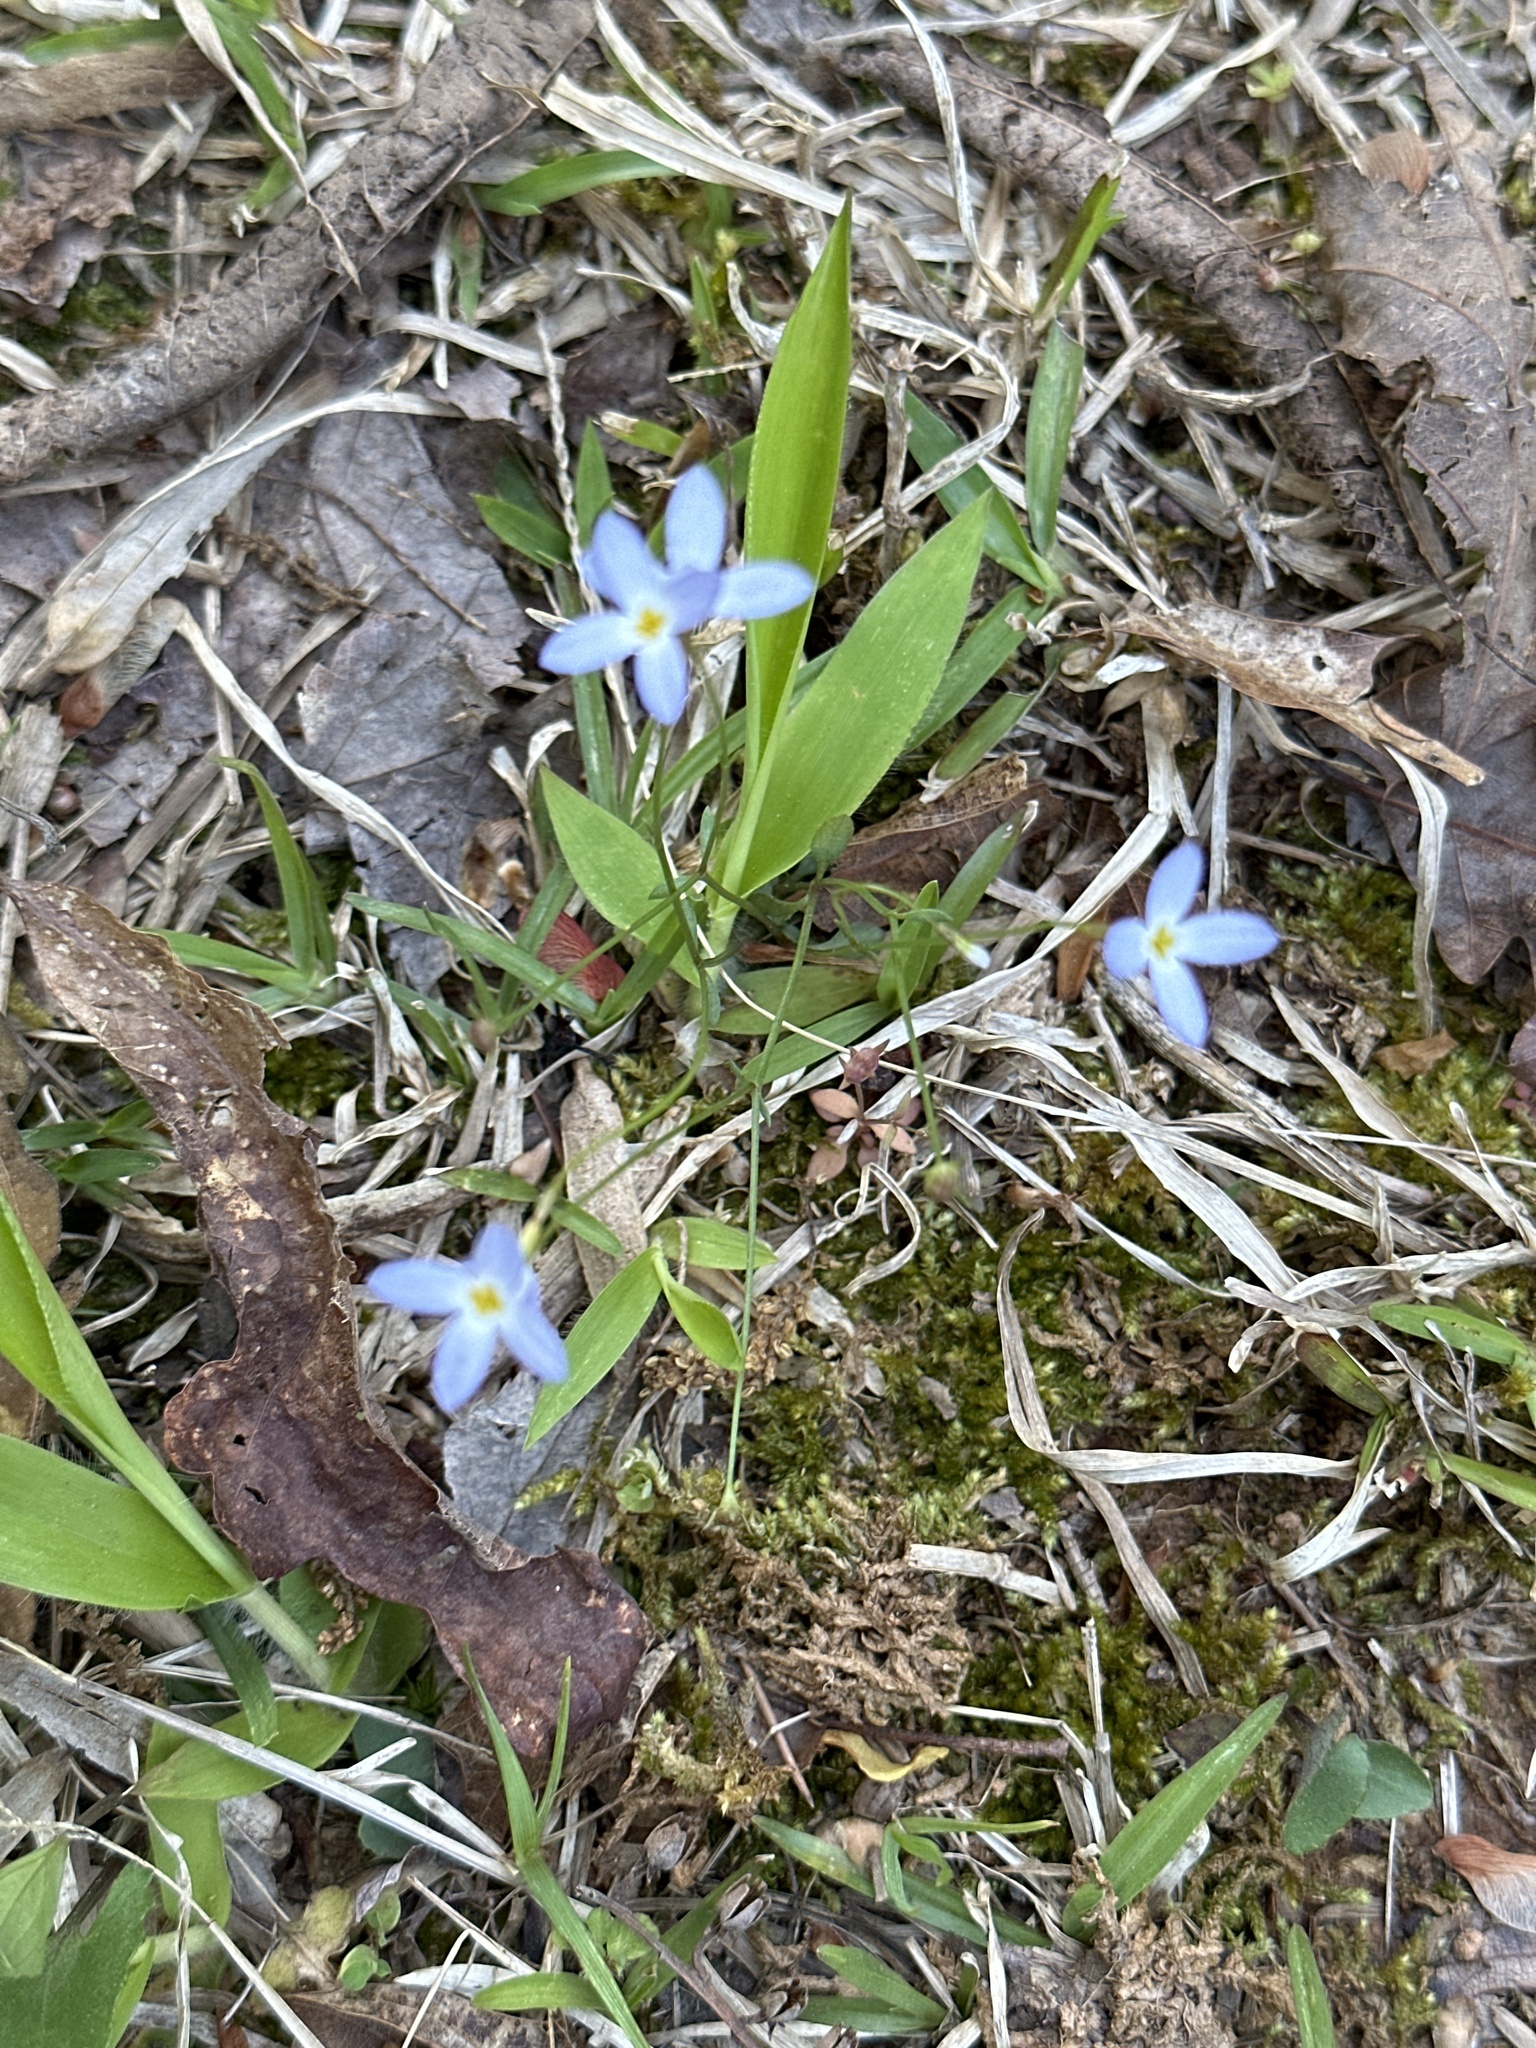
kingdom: Plantae
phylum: Tracheophyta
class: Magnoliopsida
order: Gentianales
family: Rubiaceae
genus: Houstonia
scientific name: Houstonia caerulea
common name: Bluets
